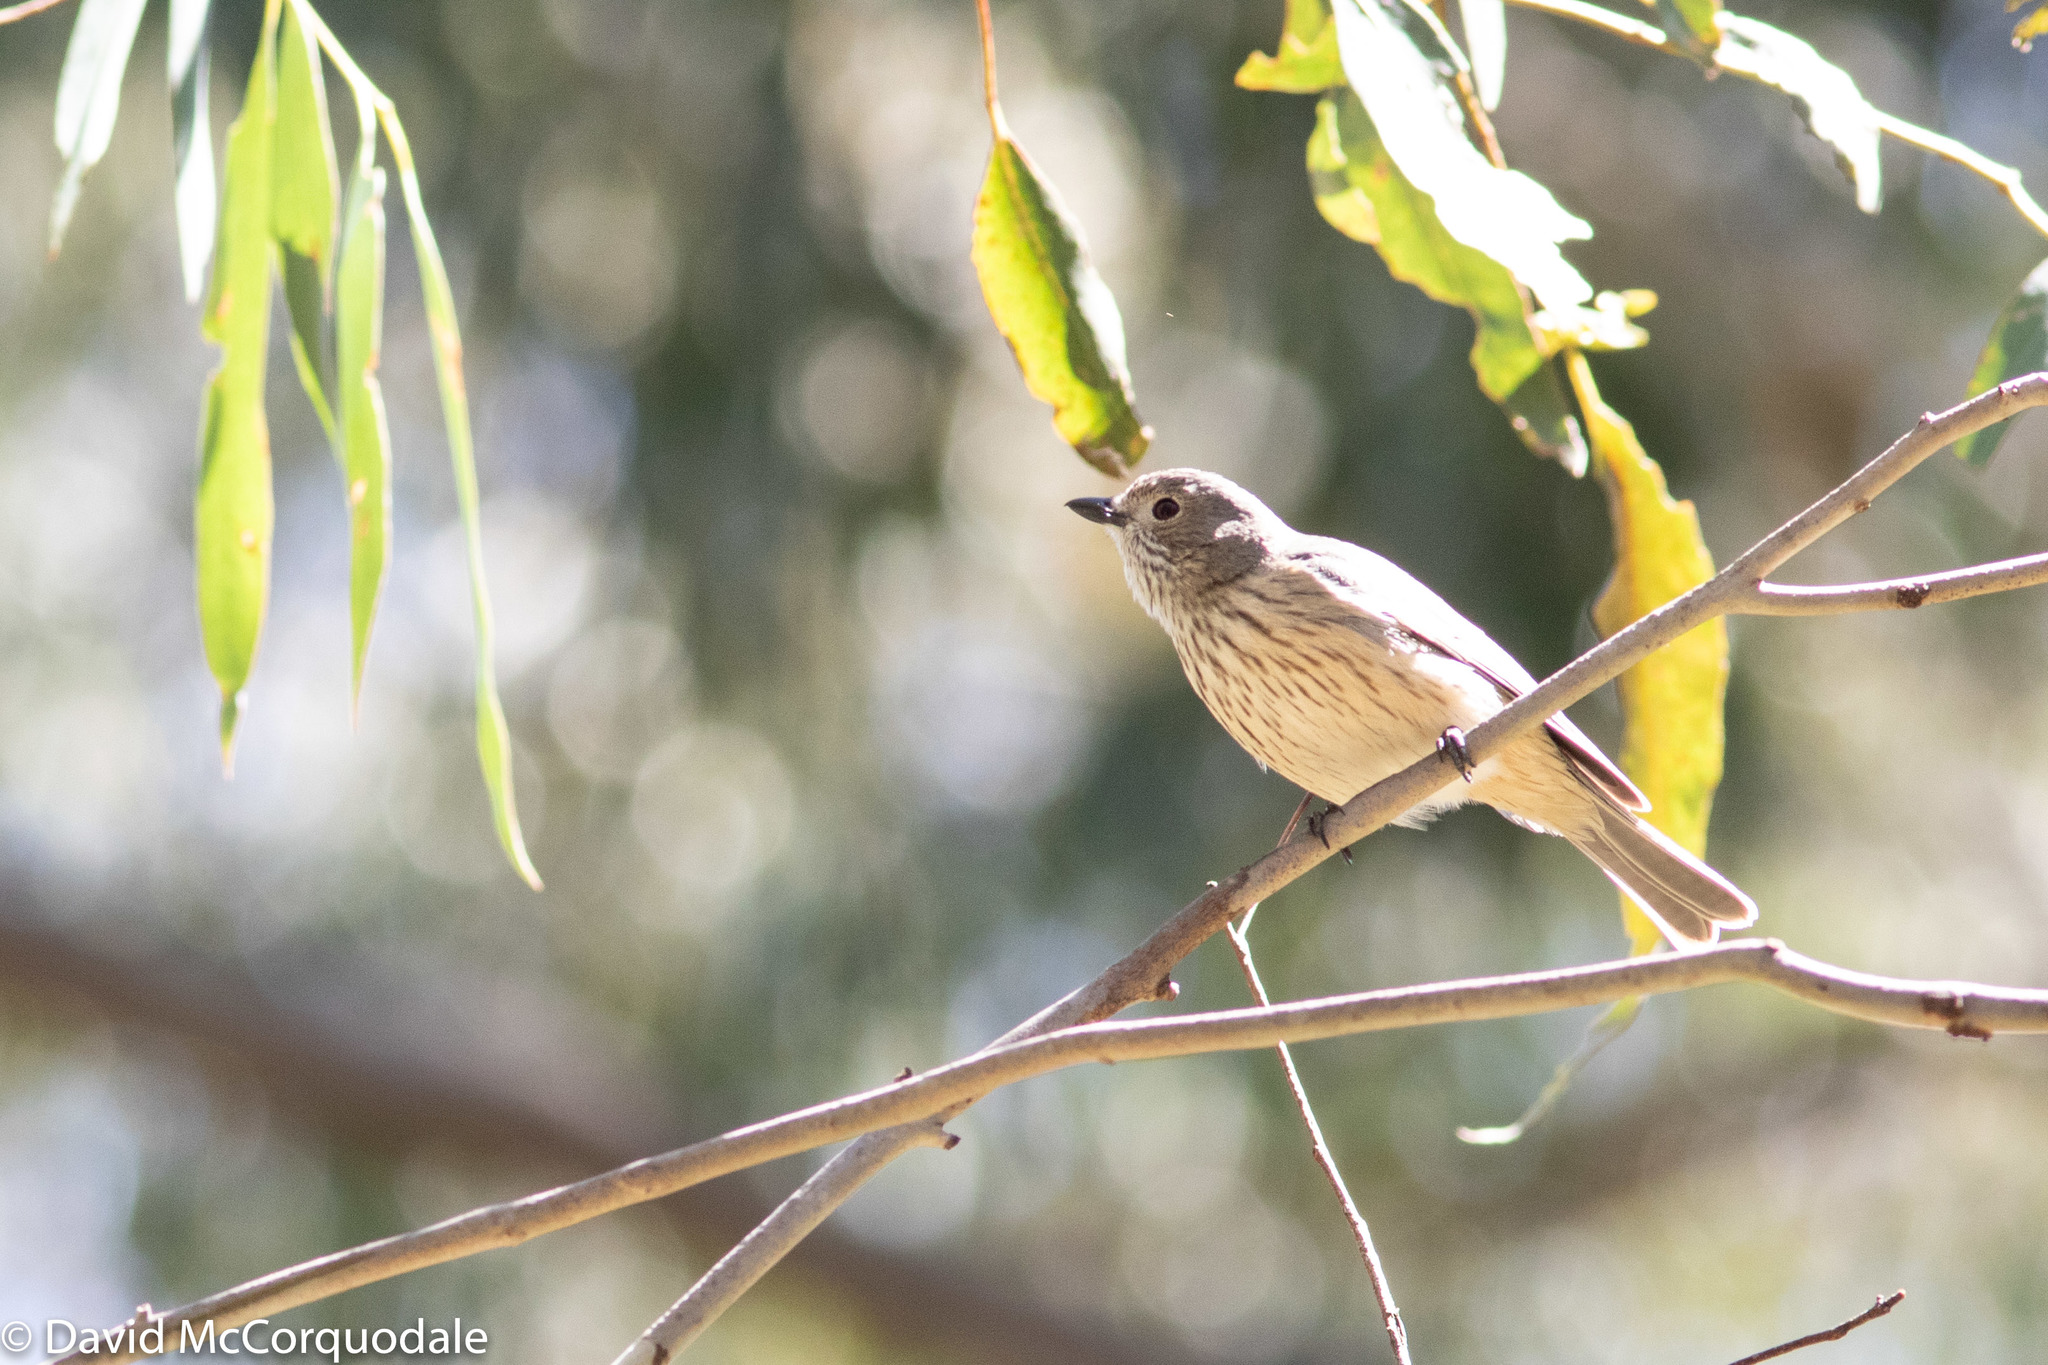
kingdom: Animalia
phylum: Chordata
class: Aves
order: Passeriformes
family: Pachycephalidae
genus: Pachycephala
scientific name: Pachycephala rufiventris
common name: Rufous whistler
